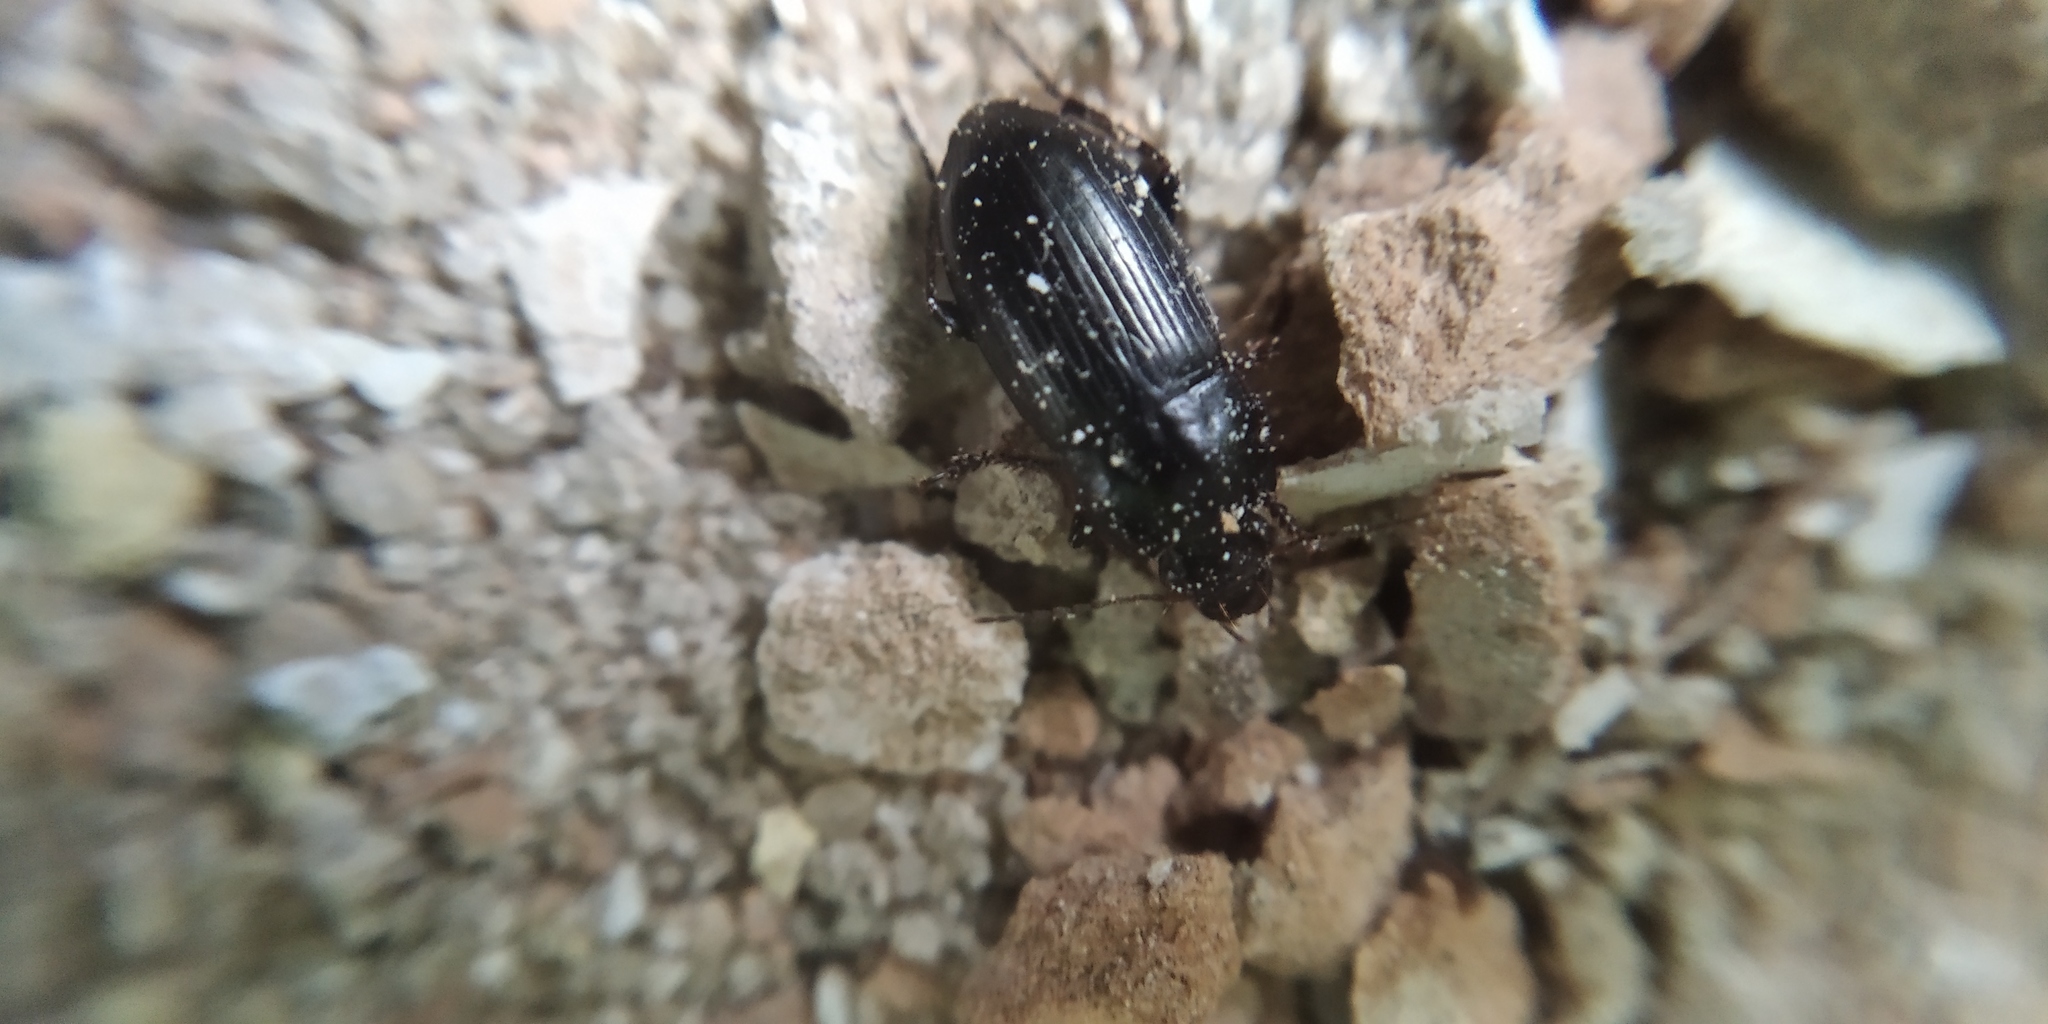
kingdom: Animalia
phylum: Arthropoda
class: Insecta
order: Coleoptera
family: Carabidae
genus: Zabrus
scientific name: Zabrus tenebrioides
